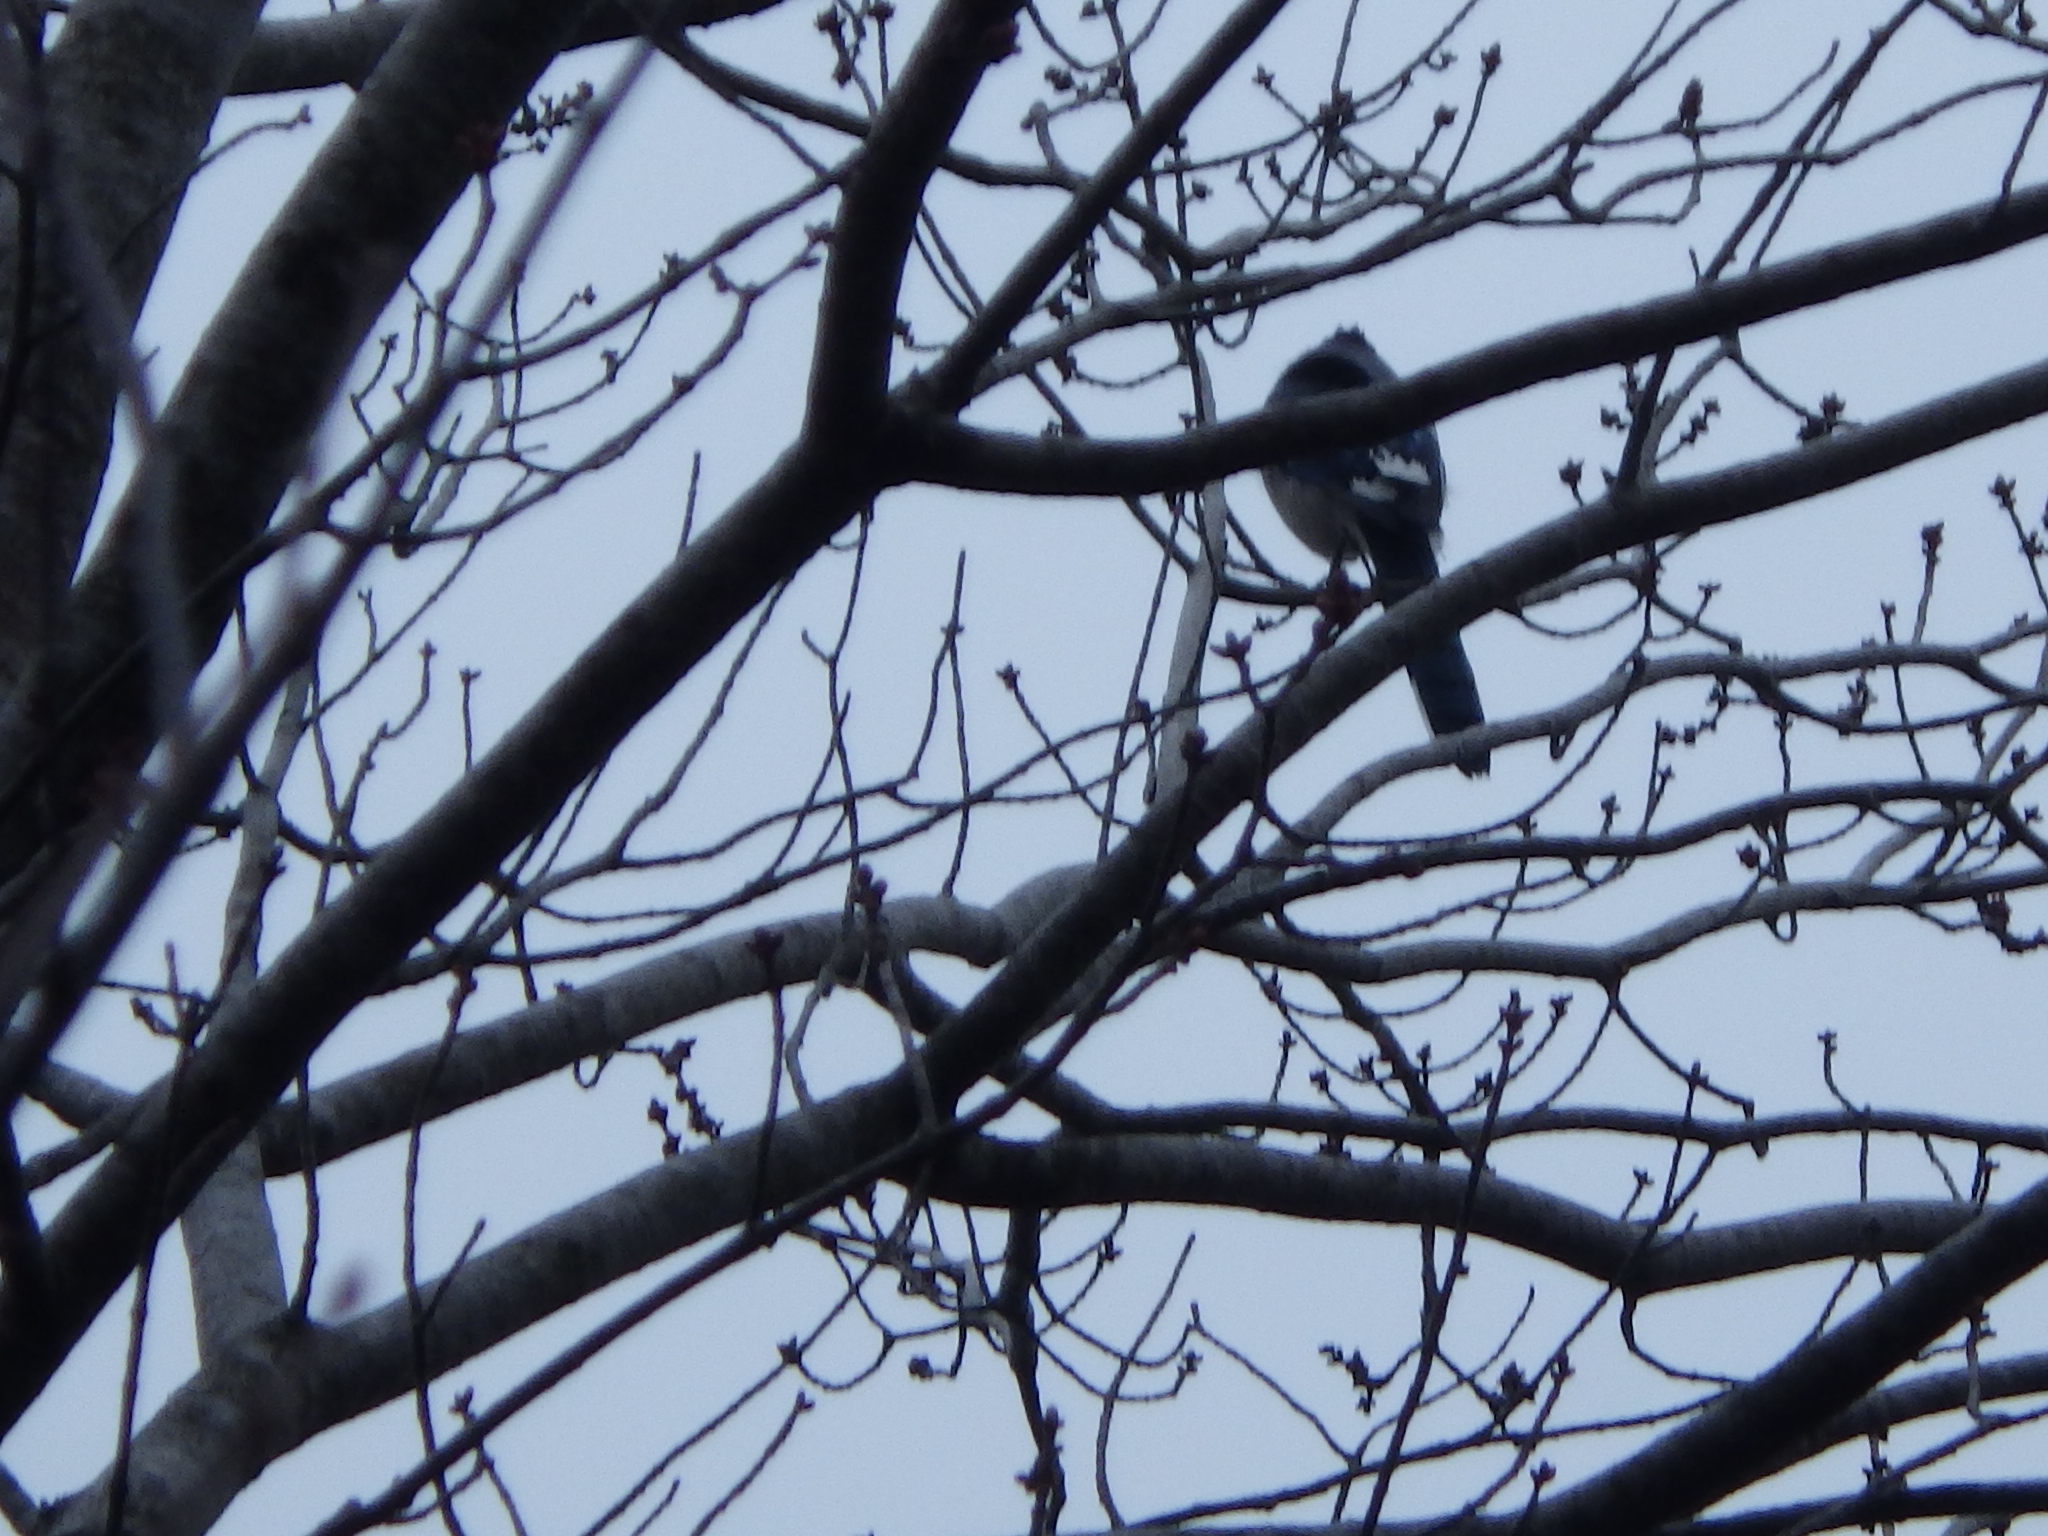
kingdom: Animalia
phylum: Chordata
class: Aves
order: Passeriformes
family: Corvidae
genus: Cyanocitta
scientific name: Cyanocitta cristata
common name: Blue jay
